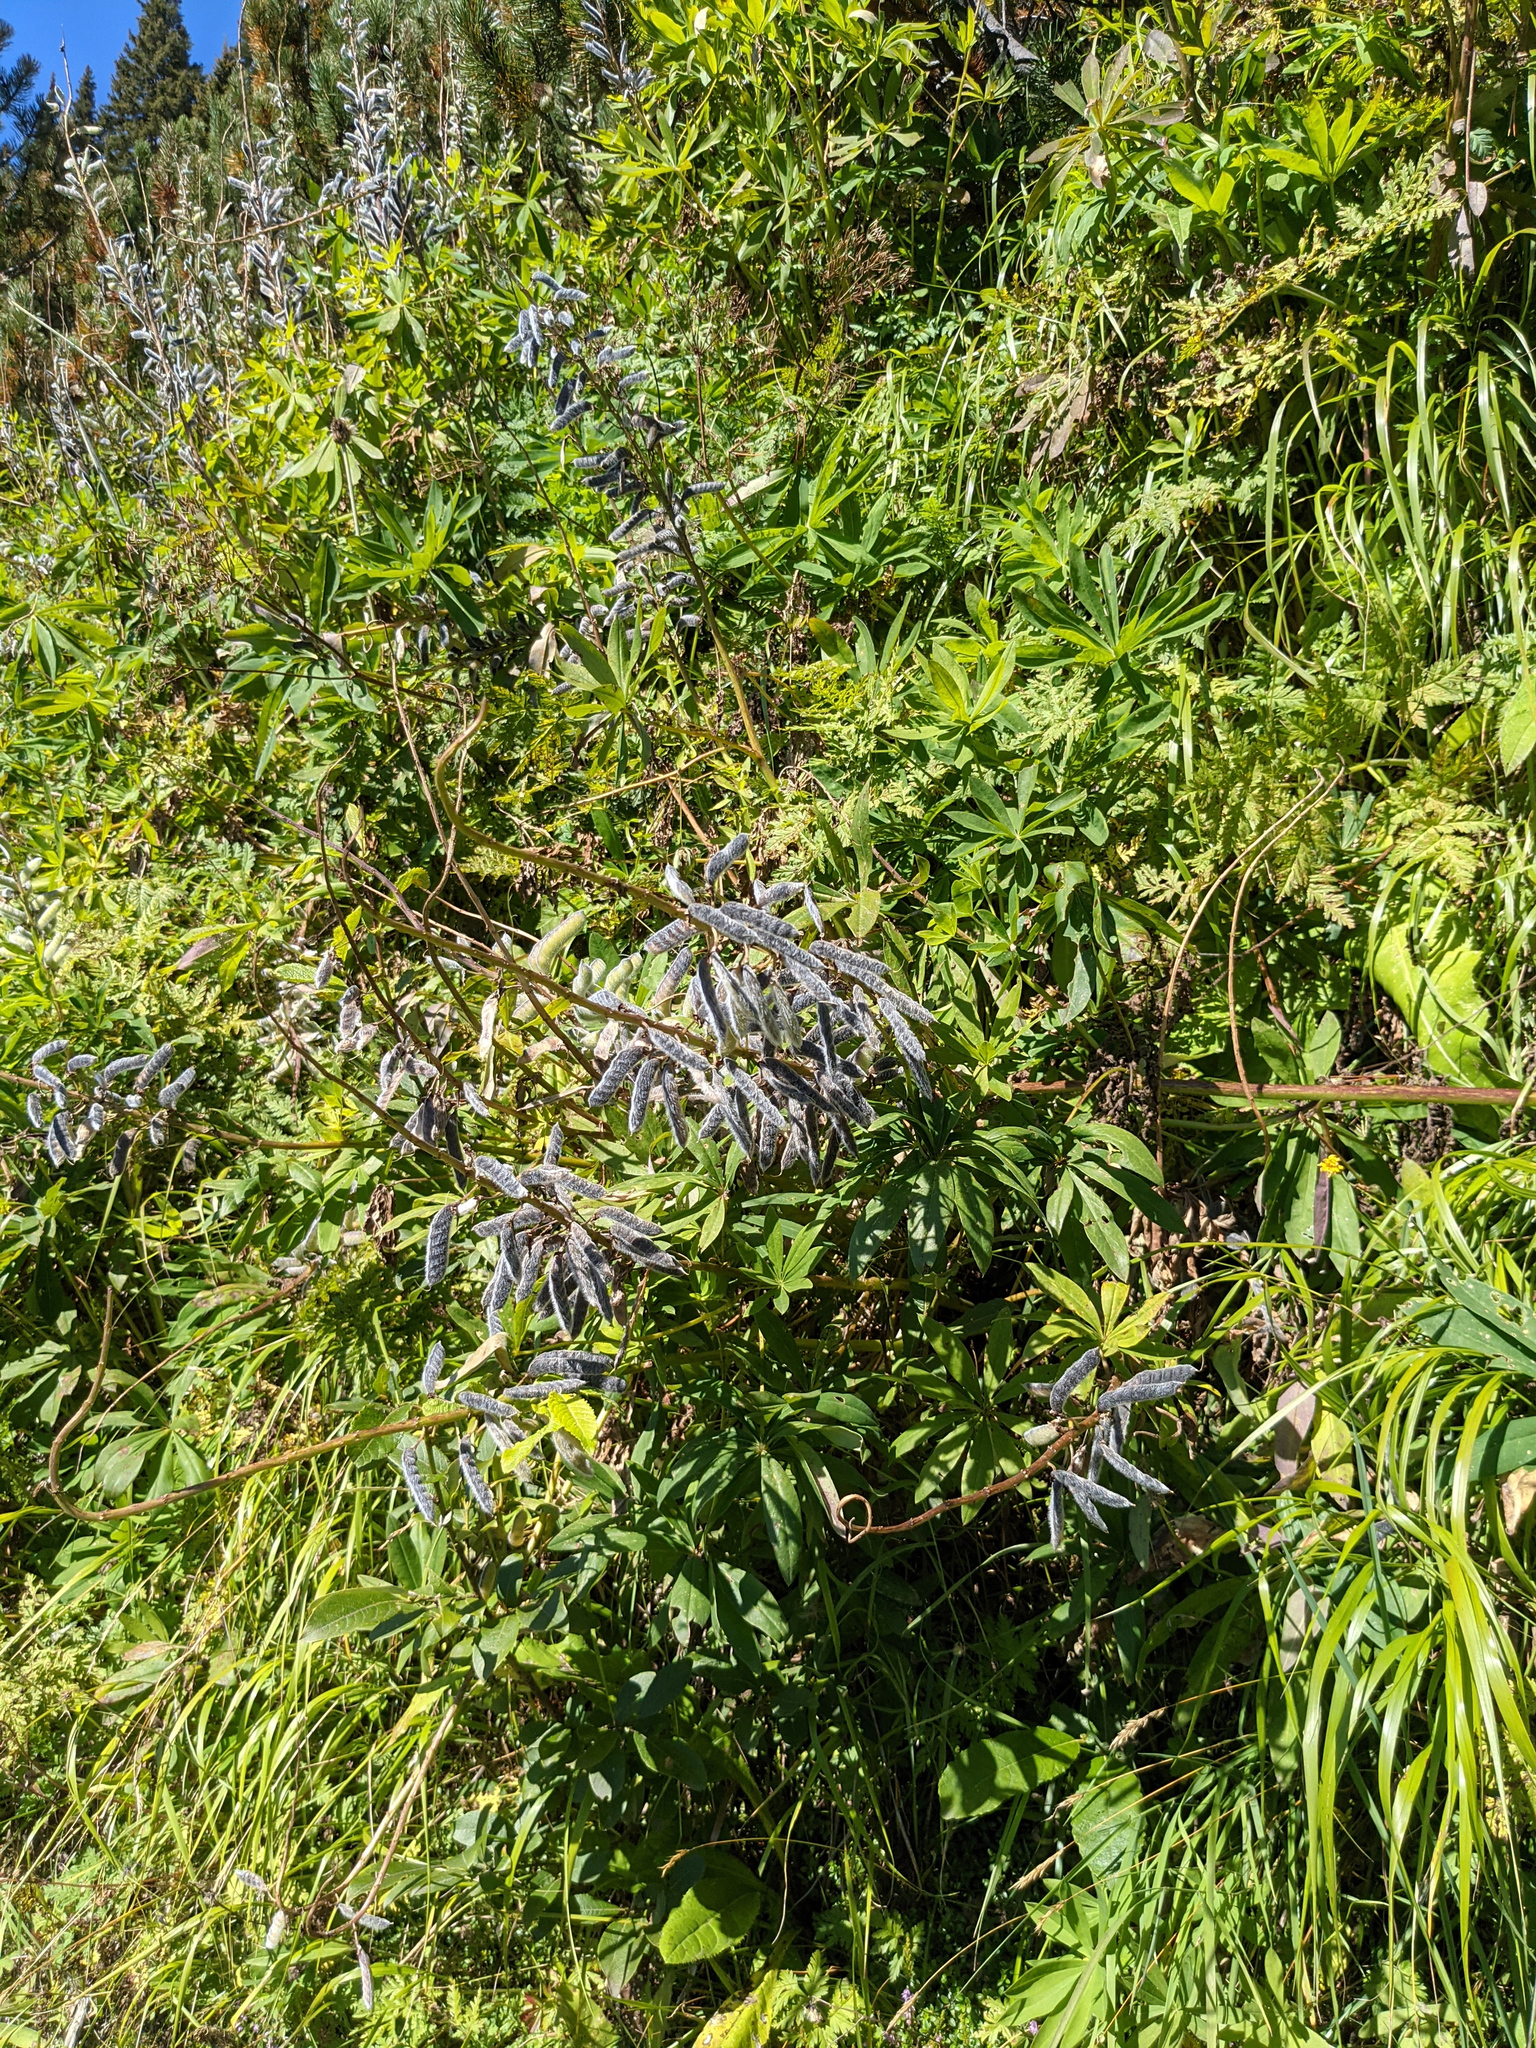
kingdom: Plantae
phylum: Tracheophyta
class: Magnoliopsida
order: Fabales
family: Fabaceae
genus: Lupinus
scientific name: Lupinus polyphyllus
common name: Garden lupin
